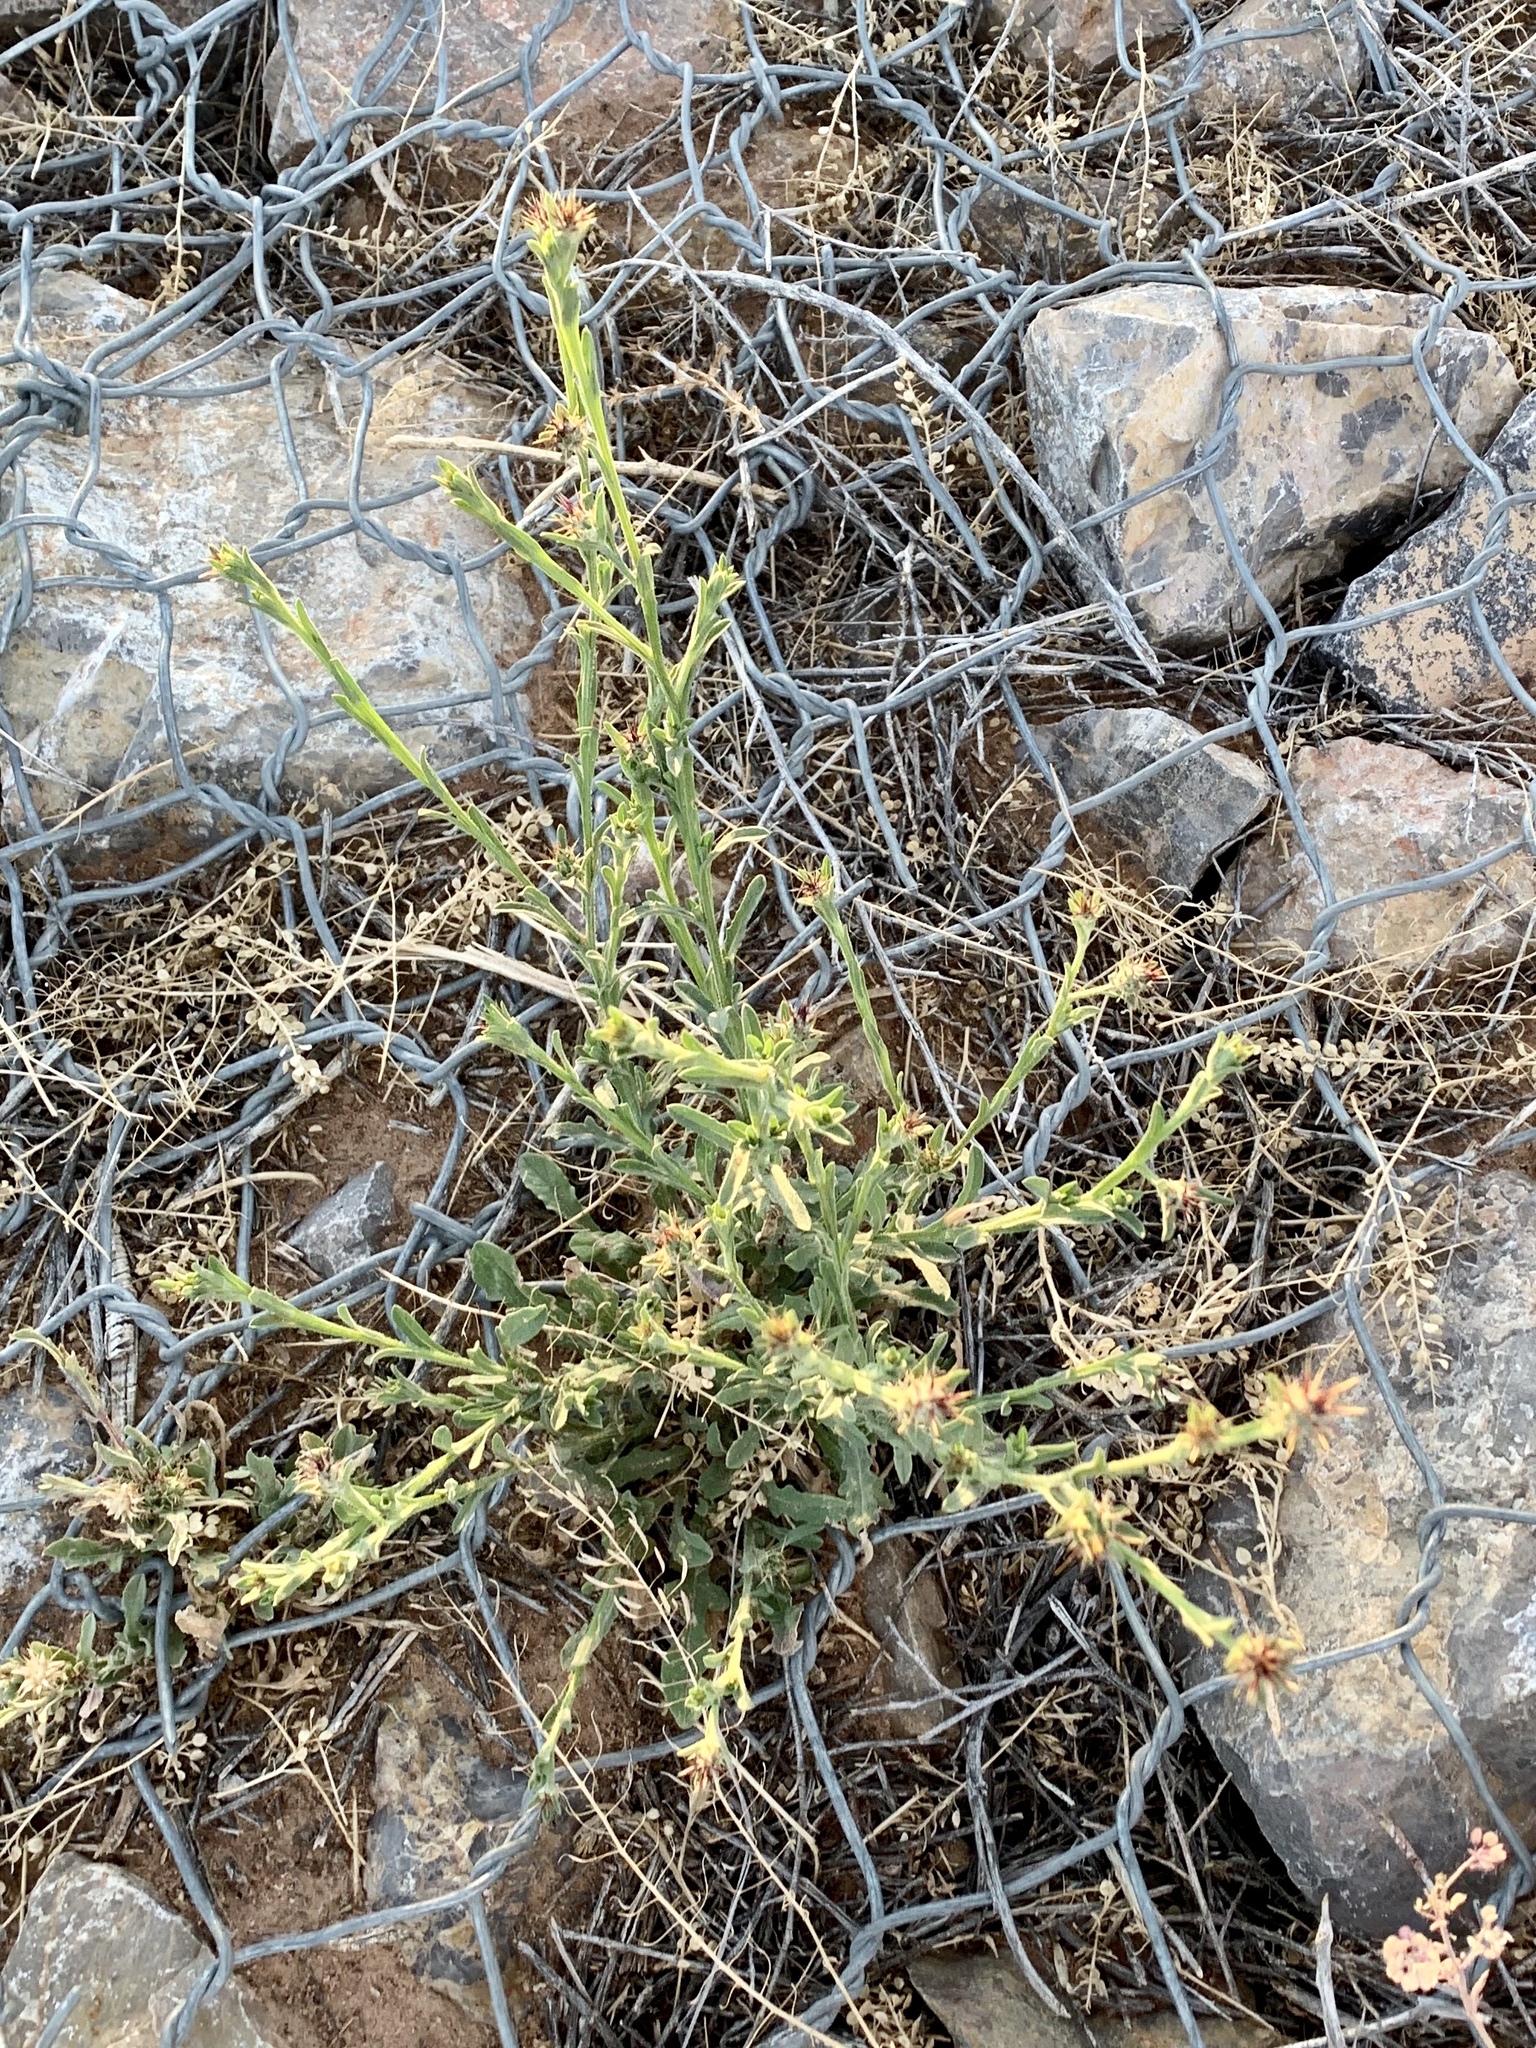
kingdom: Plantae
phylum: Tracheophyta
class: Magnoliopsida
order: Asterales
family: Asteraceae
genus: Centaurea
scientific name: Centaurea melitensis
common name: Maltese star-thistle
